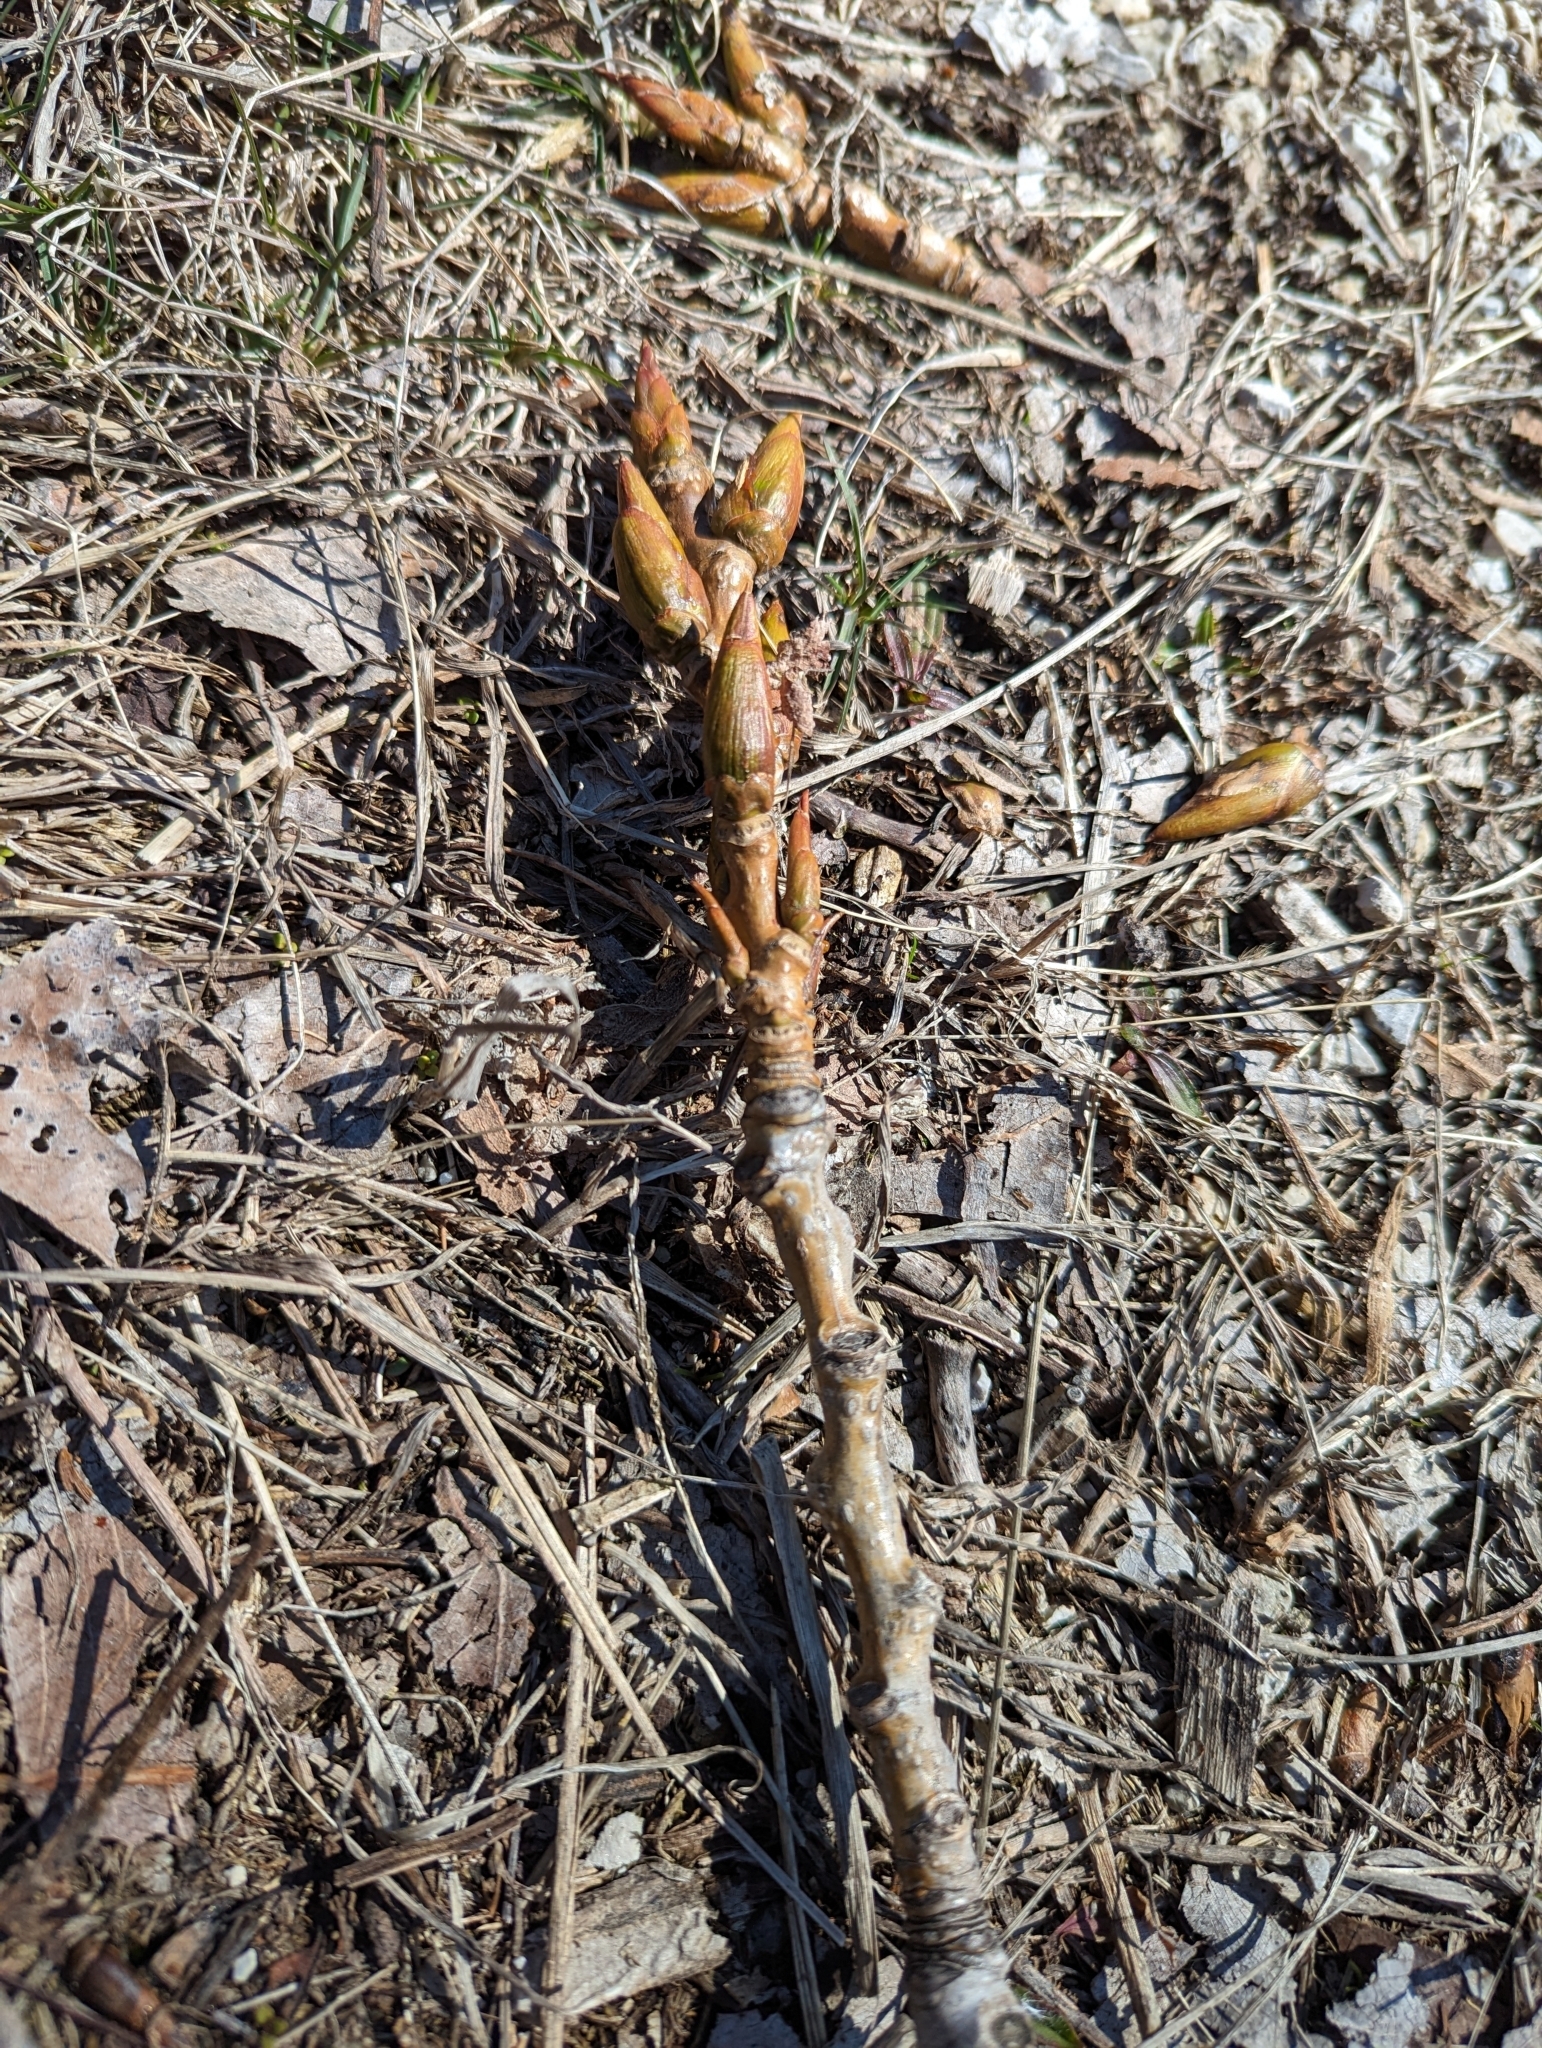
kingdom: Plantae
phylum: Tracheophyta
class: Magnoliopsida
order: Malpighiales
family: Salicaceae
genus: Populus
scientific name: Populus deltoides
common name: Eastern cottonwood
